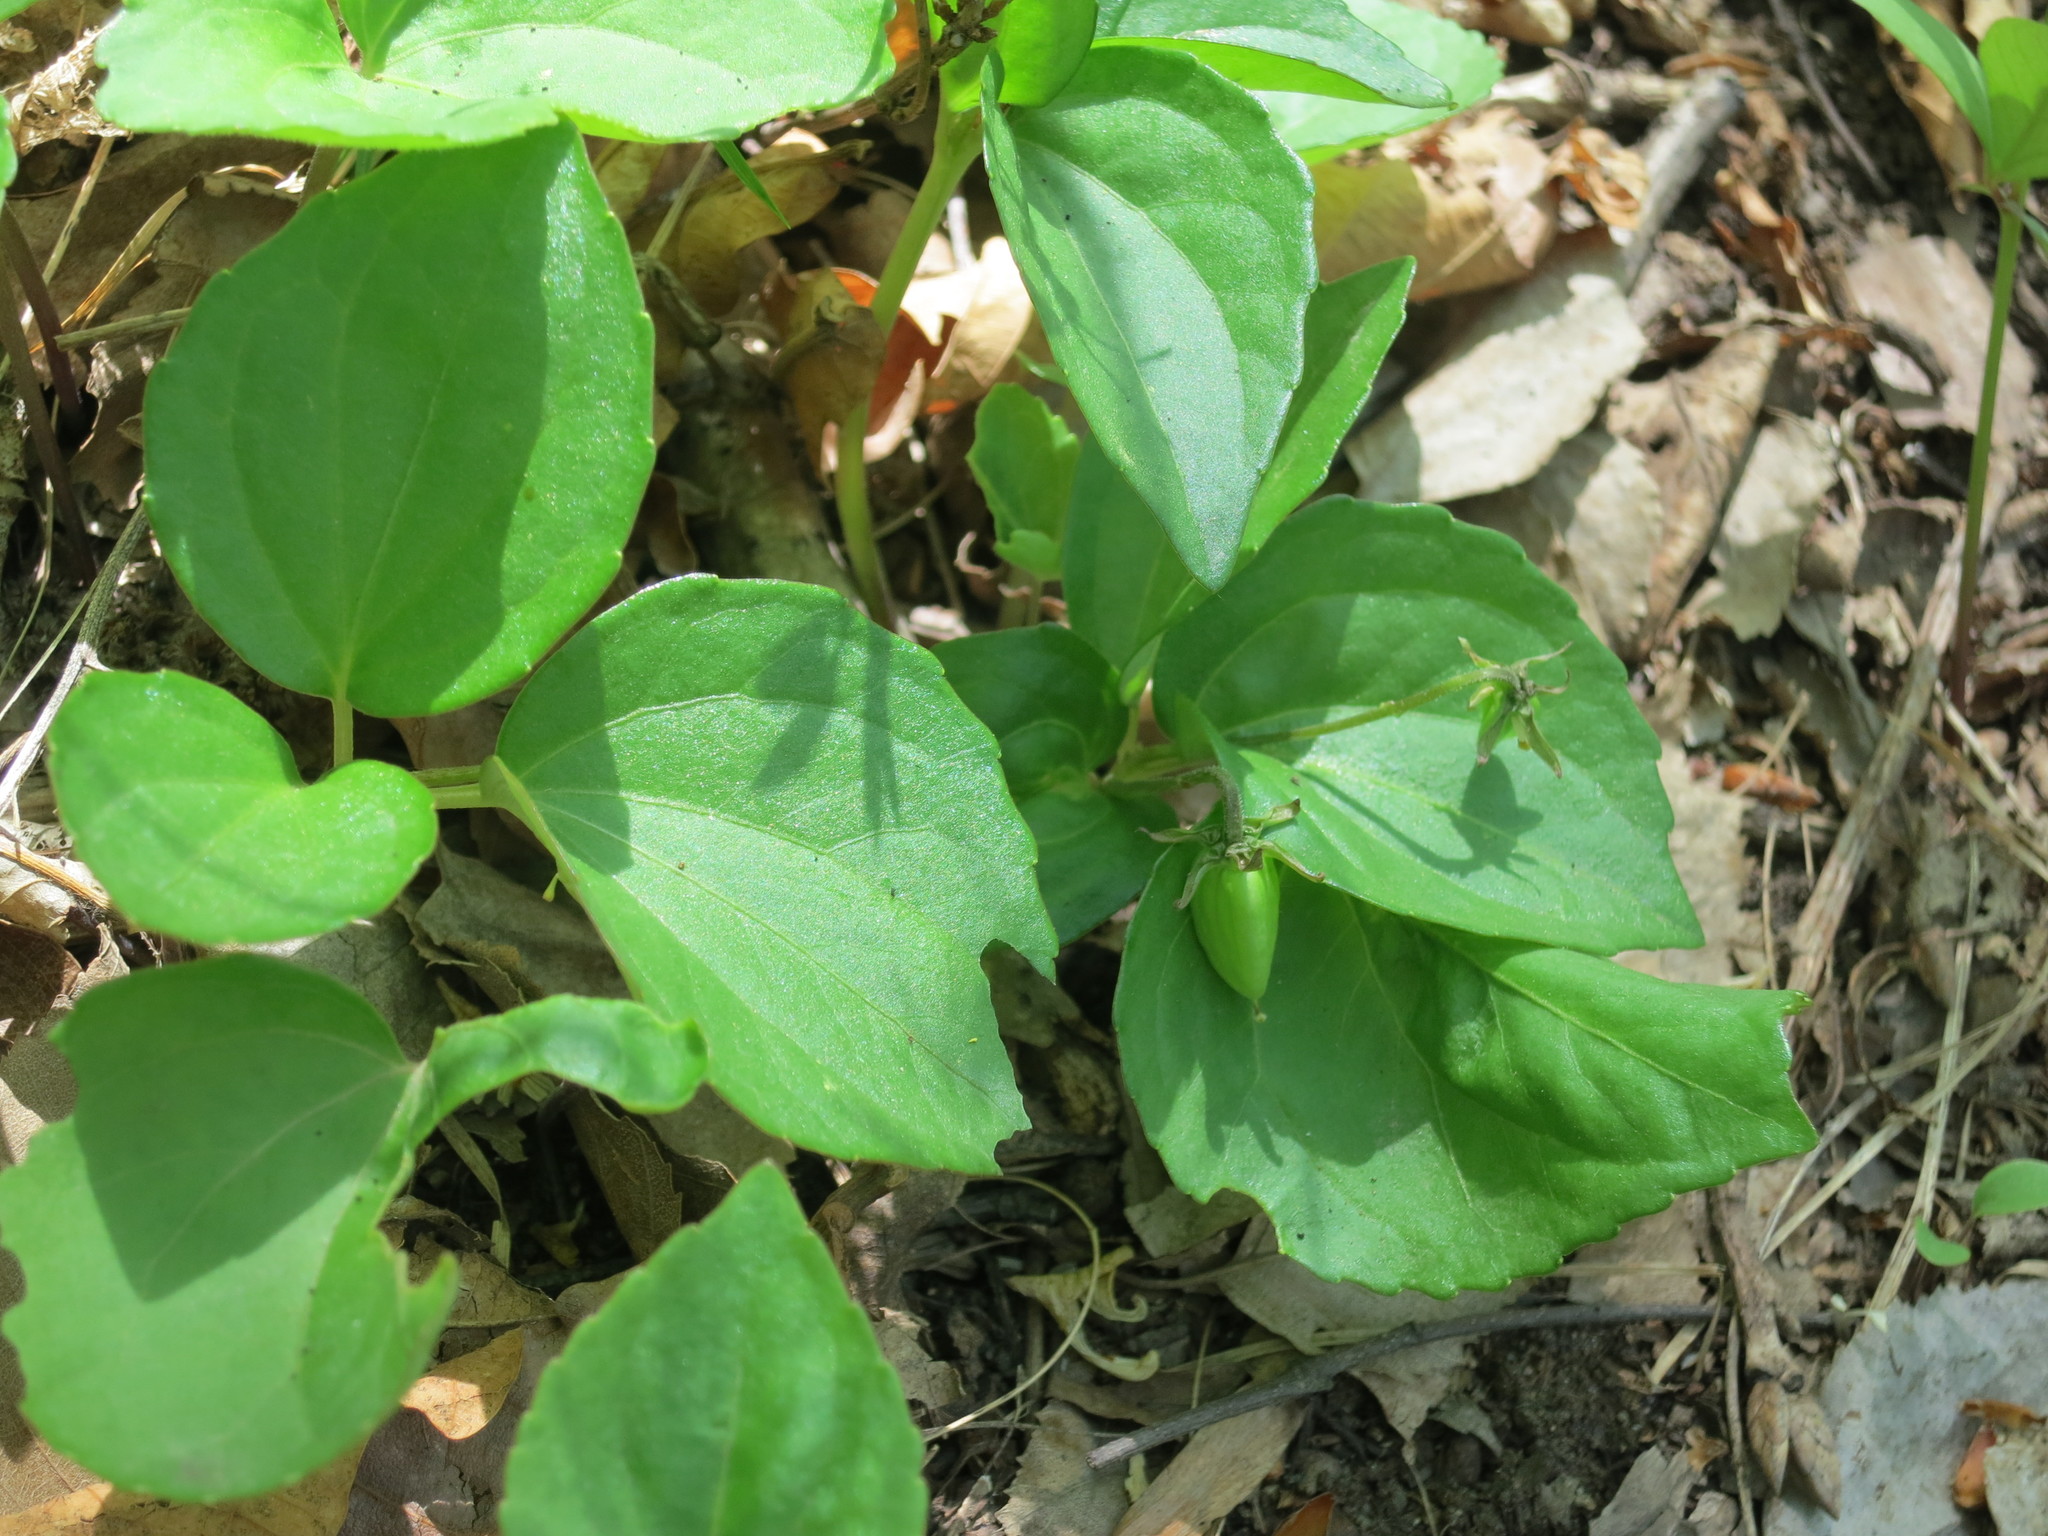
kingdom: Plantae
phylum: Tracheophyta
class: Magnoliopsida
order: Malpighiales
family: Violaceae
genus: Viola
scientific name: Viola orientalis
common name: Golden violet
